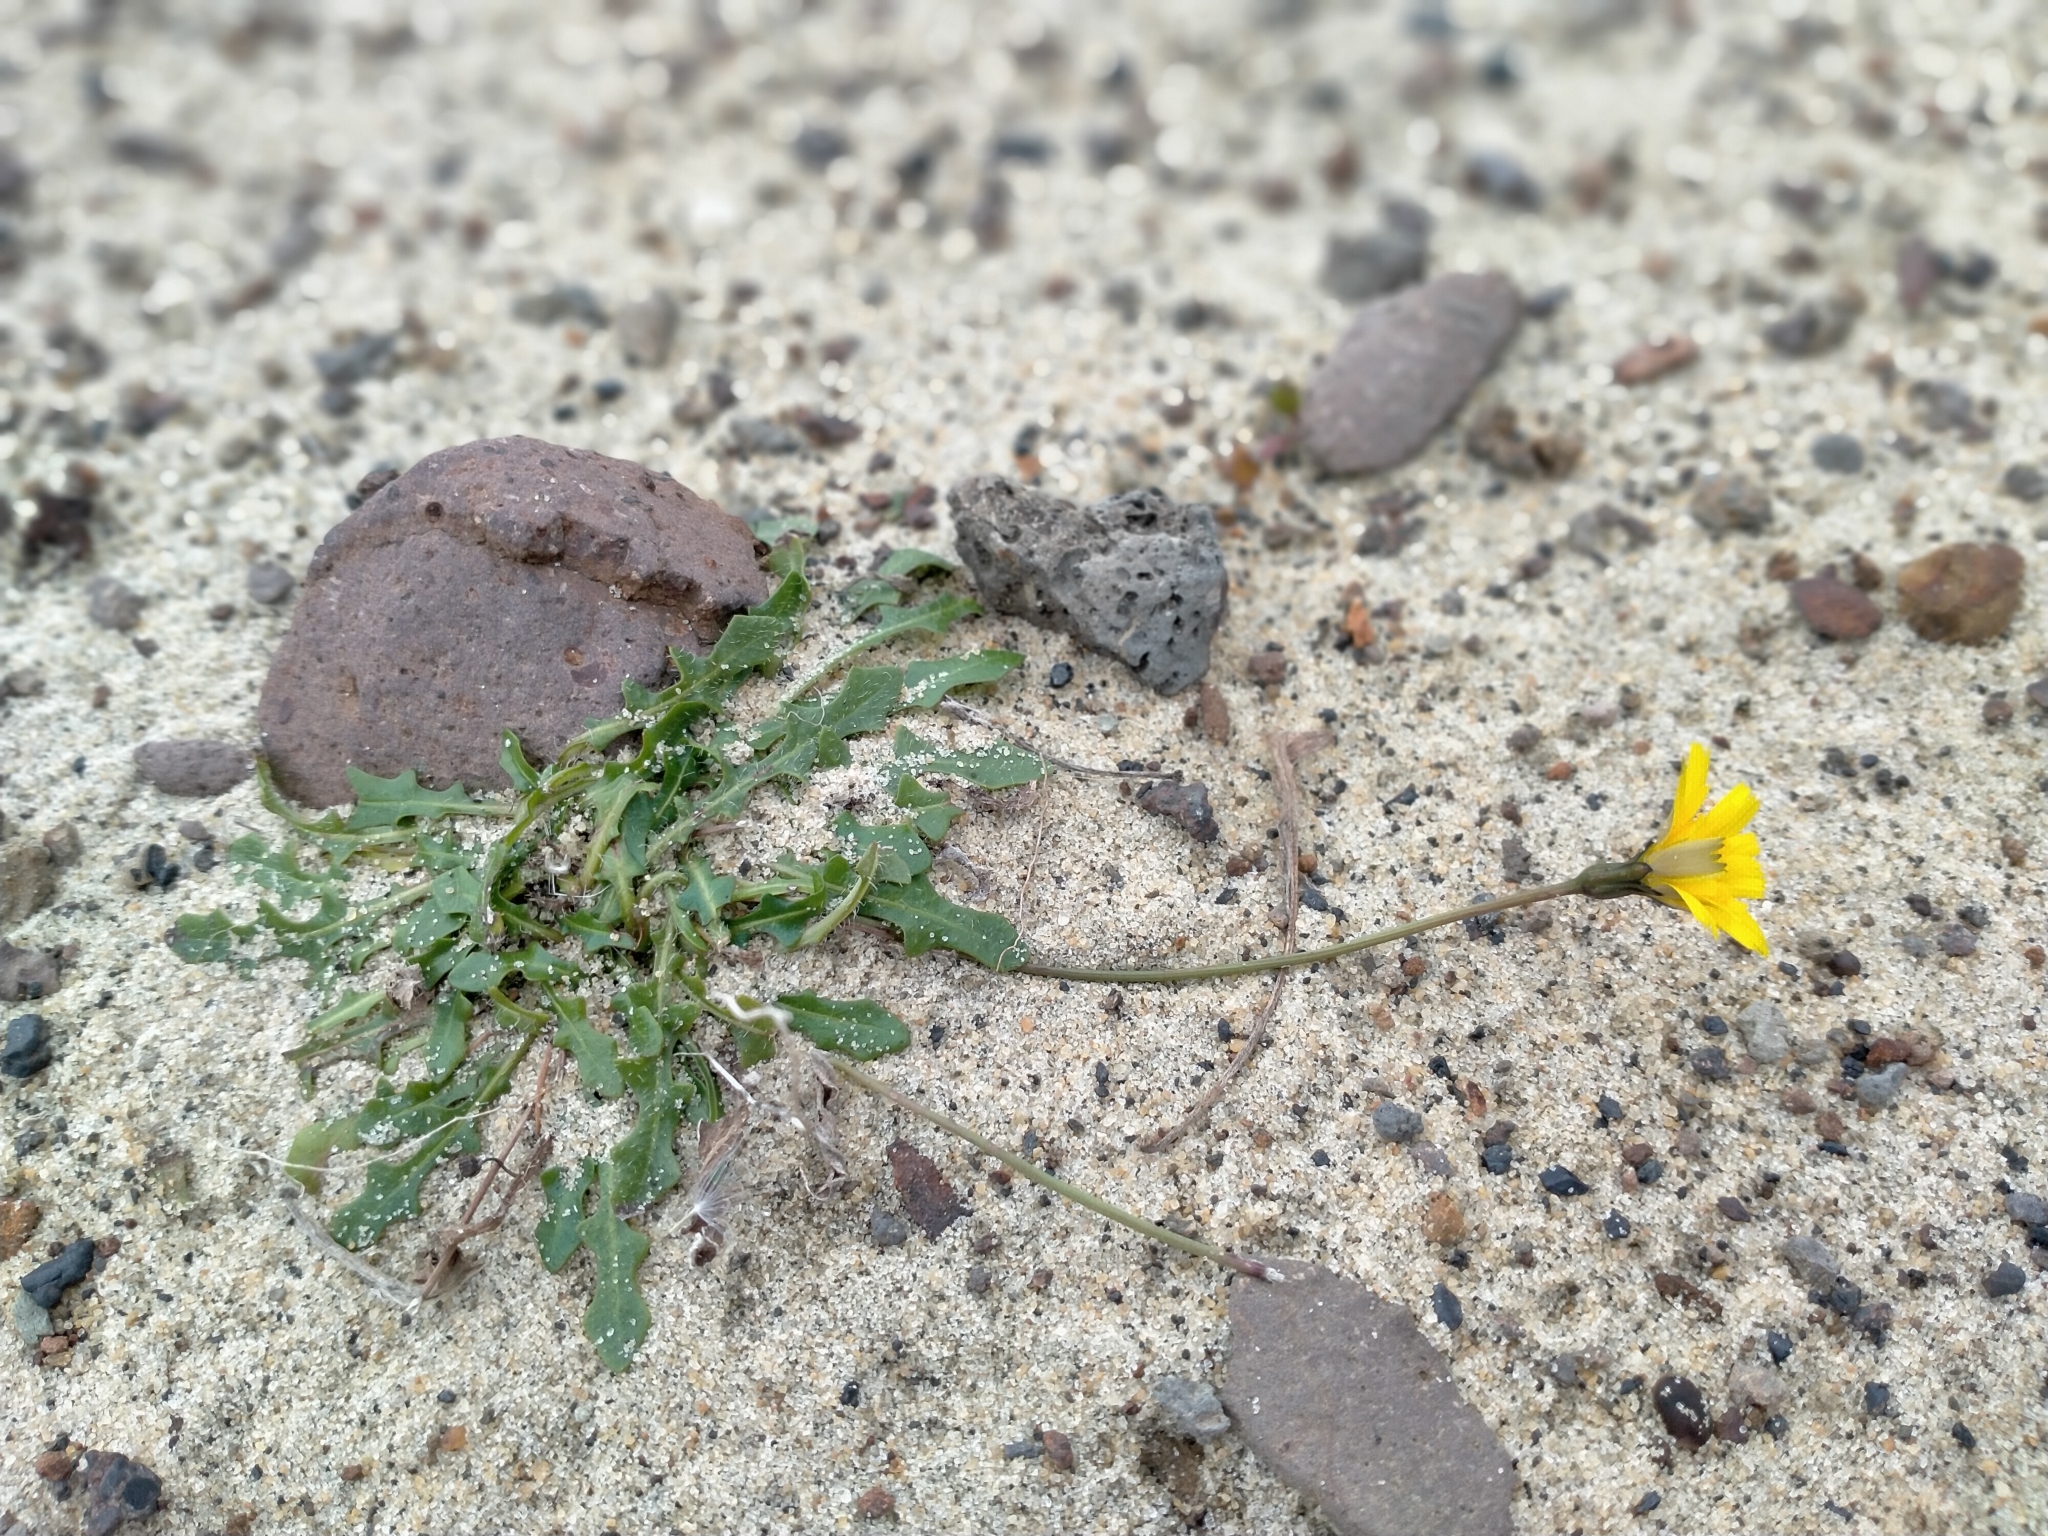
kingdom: Plantae
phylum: Tracheophyta
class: Magnoliopsida
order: Asterales
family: Asteraceae
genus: Thrincia
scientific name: Thrincia saxatilis
